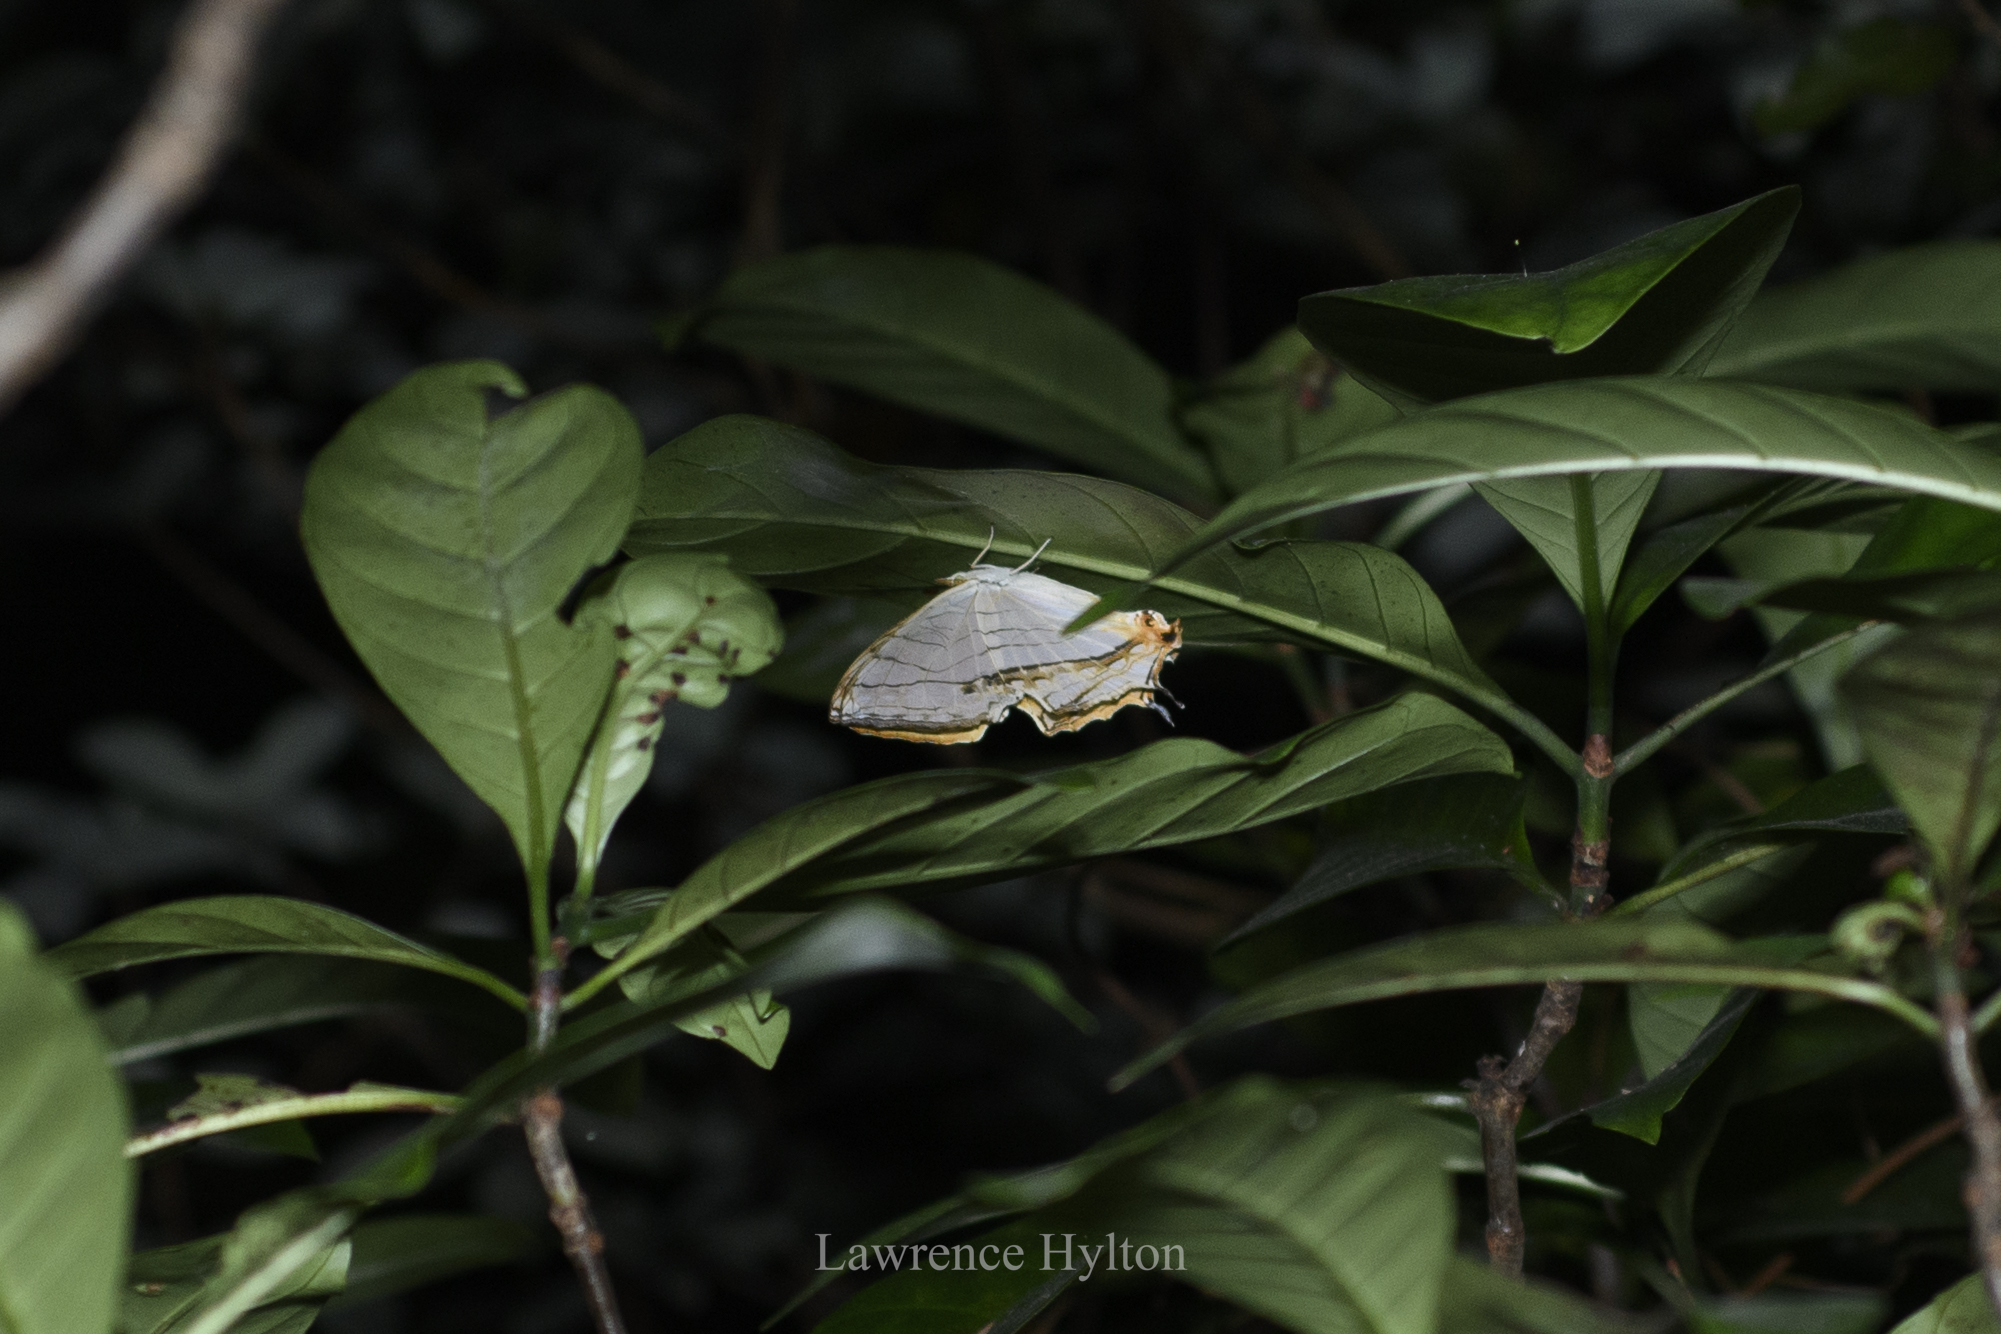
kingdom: Animalia
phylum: Arthropoda
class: Insecta
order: Lepidoptera
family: Nymphalidae
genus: Cyrestis
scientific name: Cyrestis thyodamas
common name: Common mapwing
